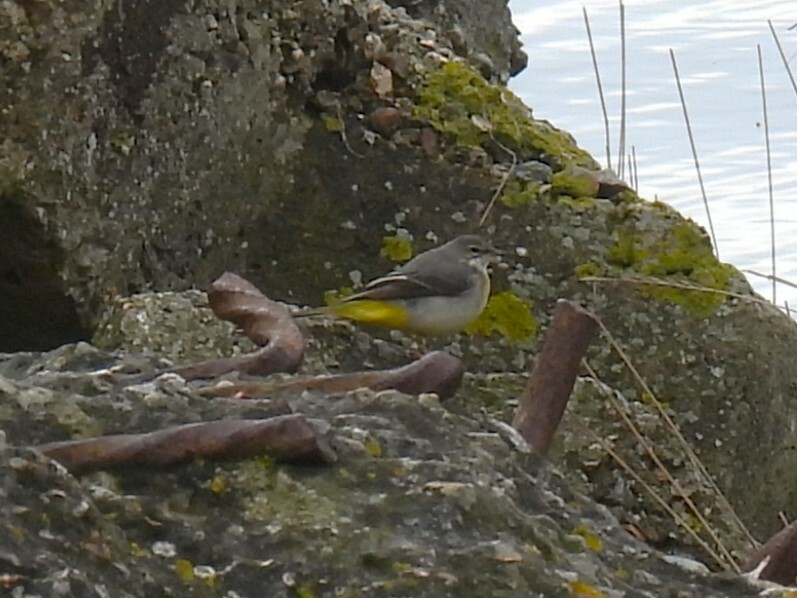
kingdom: Animalia
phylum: Chordata
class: Aves
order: Passeriformes
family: Motacillidae
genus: Motacilla
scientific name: Motacilla cinerea
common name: Grey wagtail
